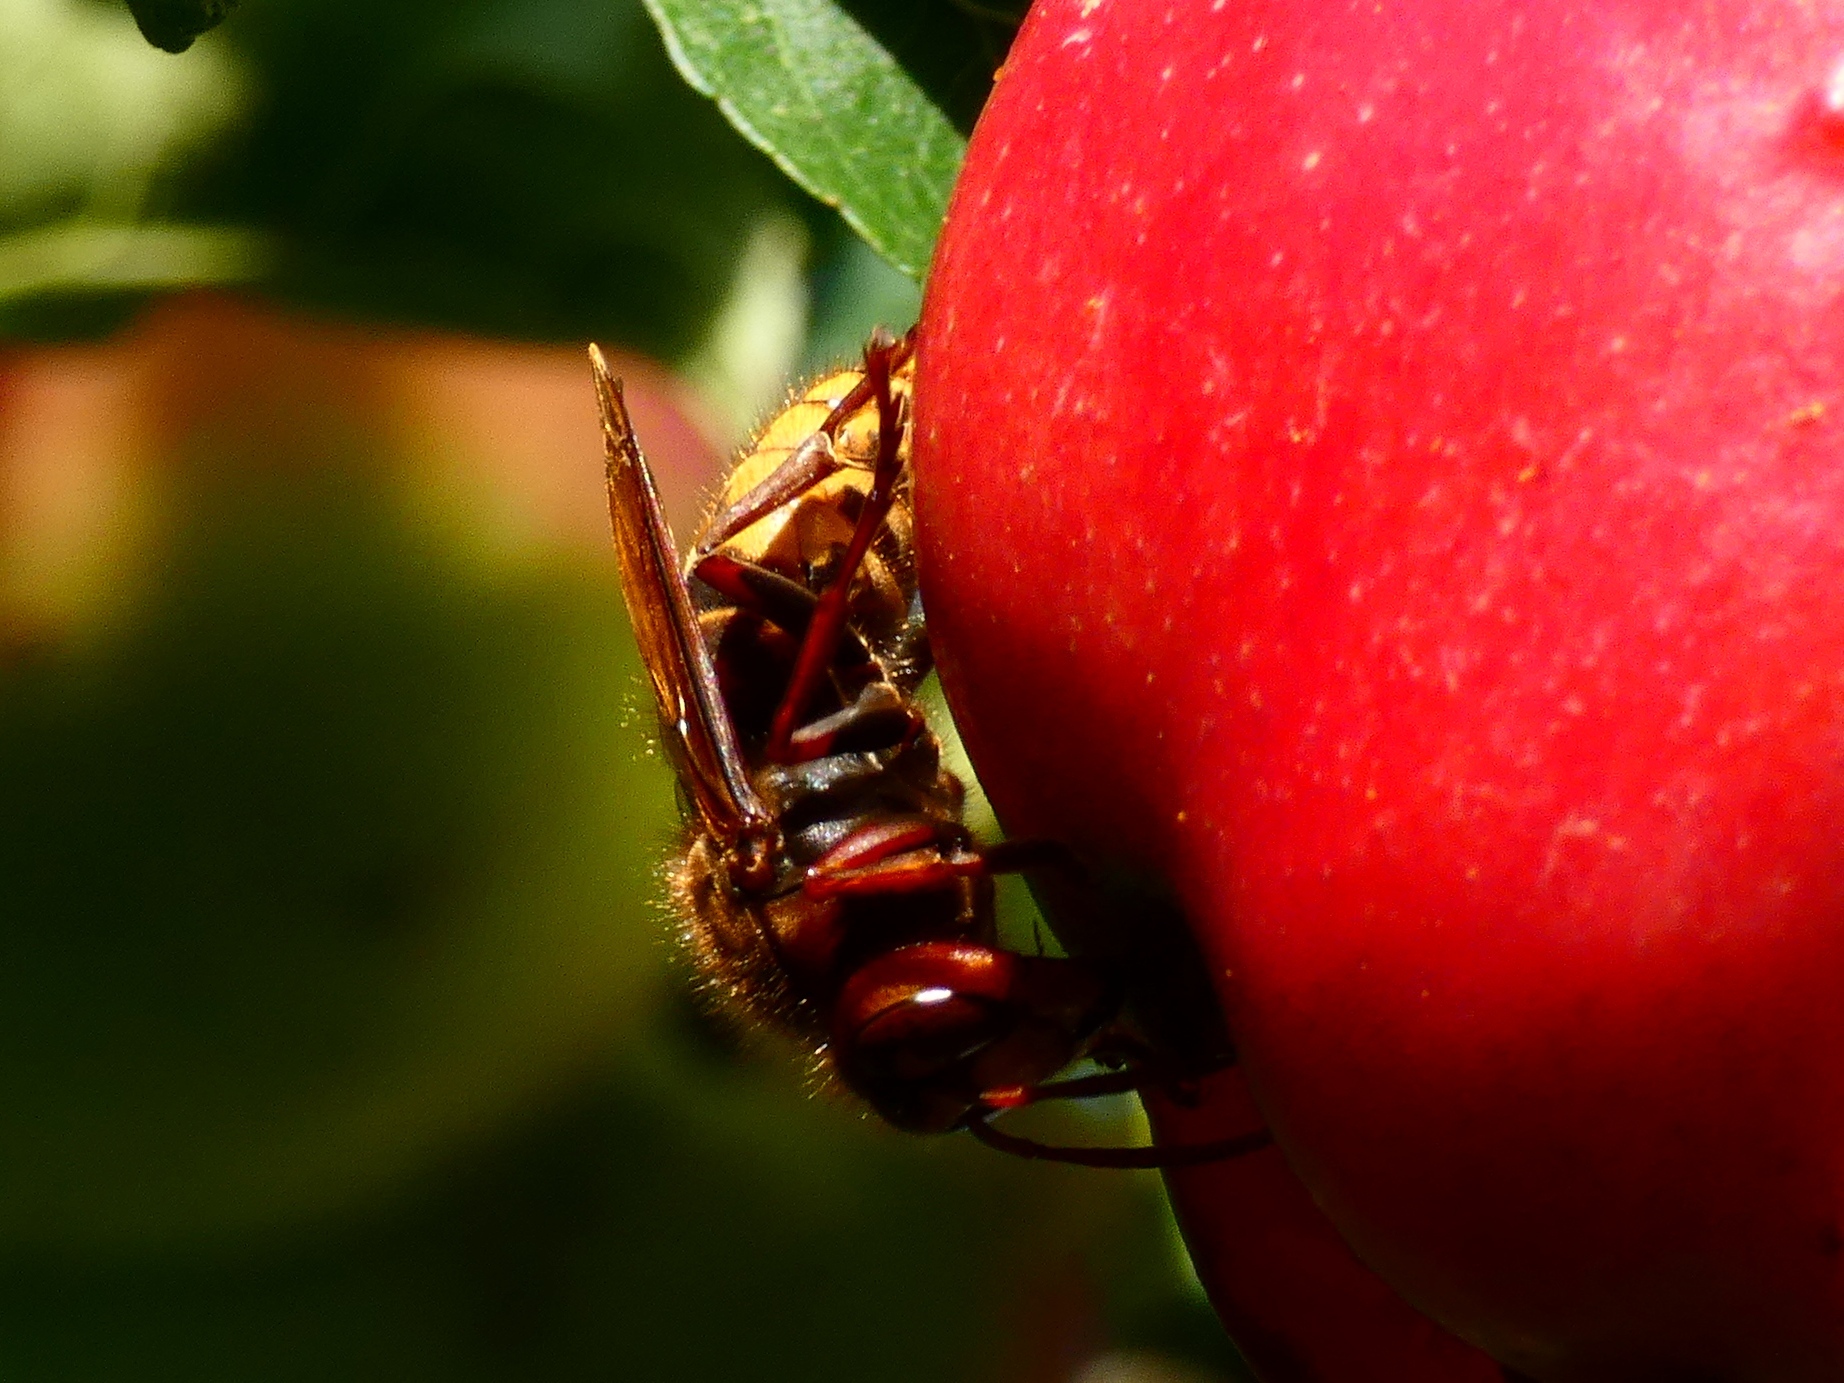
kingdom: Animalia
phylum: Arthropoda
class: Insecta
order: Hymenoptera
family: Vespidae
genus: Vespa
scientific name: Vespa crabro
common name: Hornet
